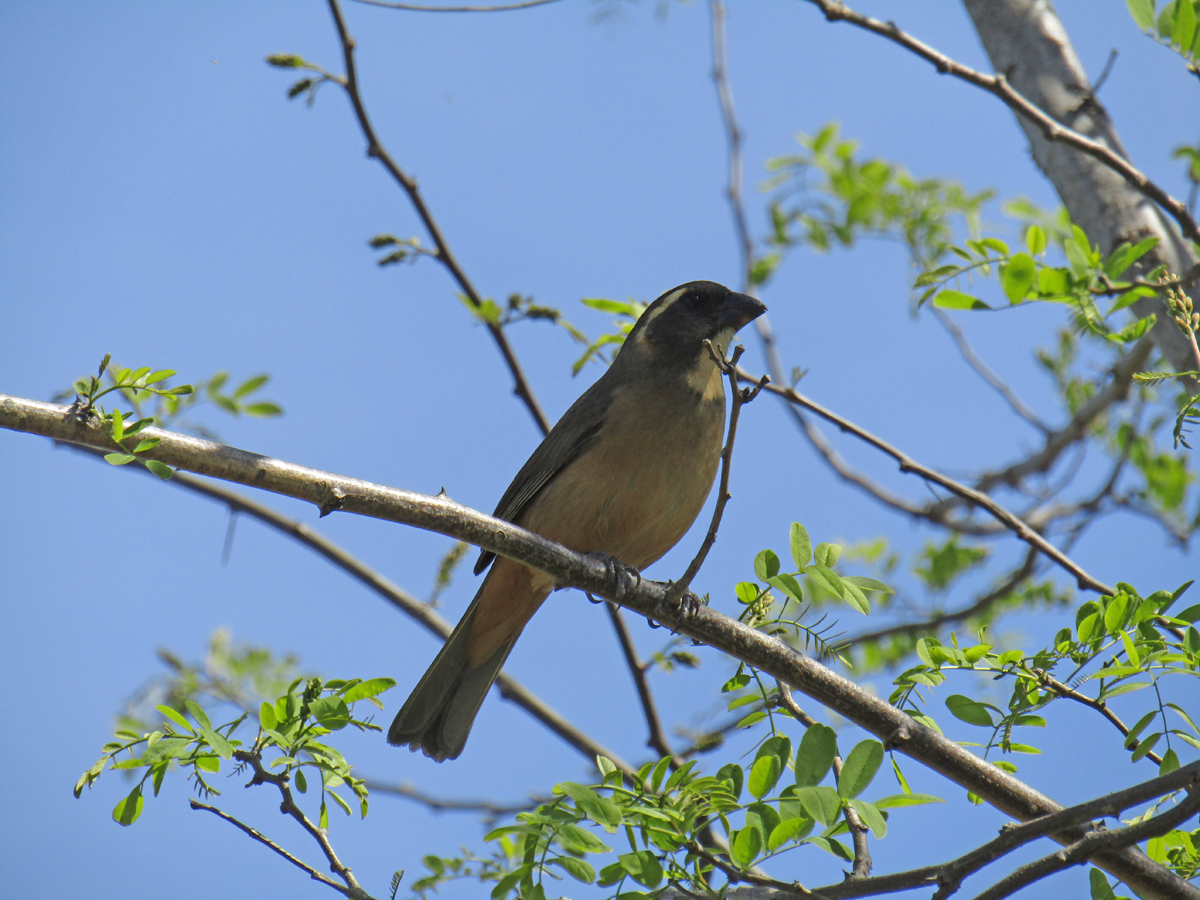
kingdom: Animalia
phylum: Chordata
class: Aves
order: Passeriformes
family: Thraupidae
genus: Saltator
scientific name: Saltator aurantiirostris
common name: Golden-billed saltator
